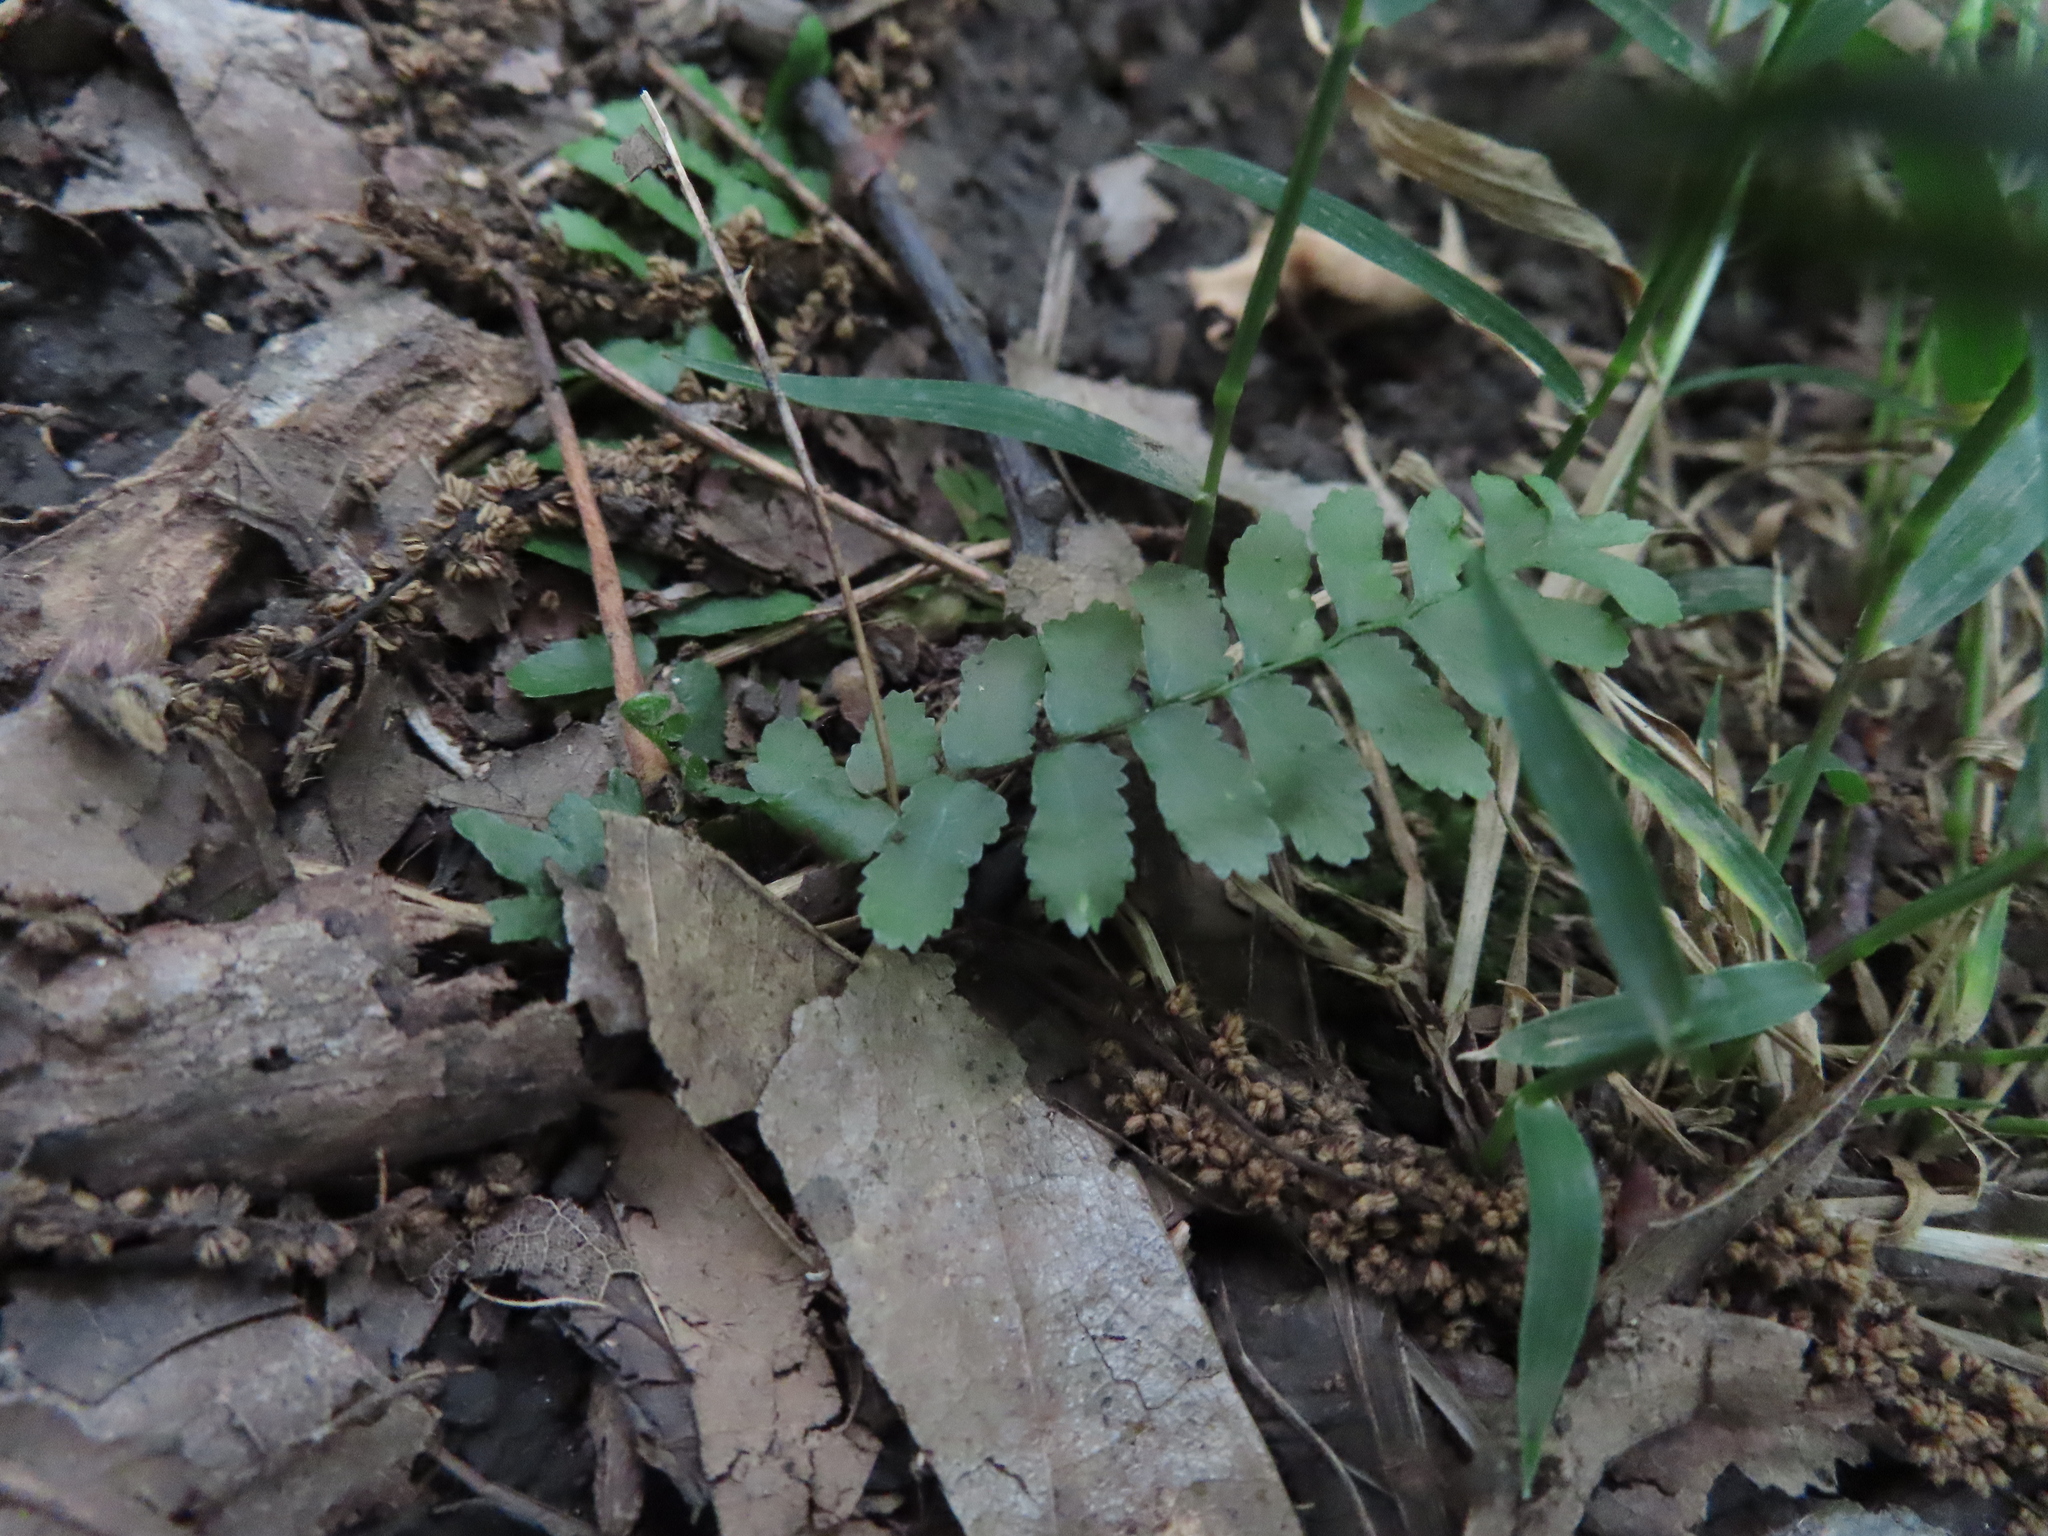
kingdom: Plantae
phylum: Tracheophyta
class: Polypodiopsida
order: Polypodiales
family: Aspleniaceae
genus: Asplenium
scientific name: Asplenium platyneuron
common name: Ebony spleenwort
